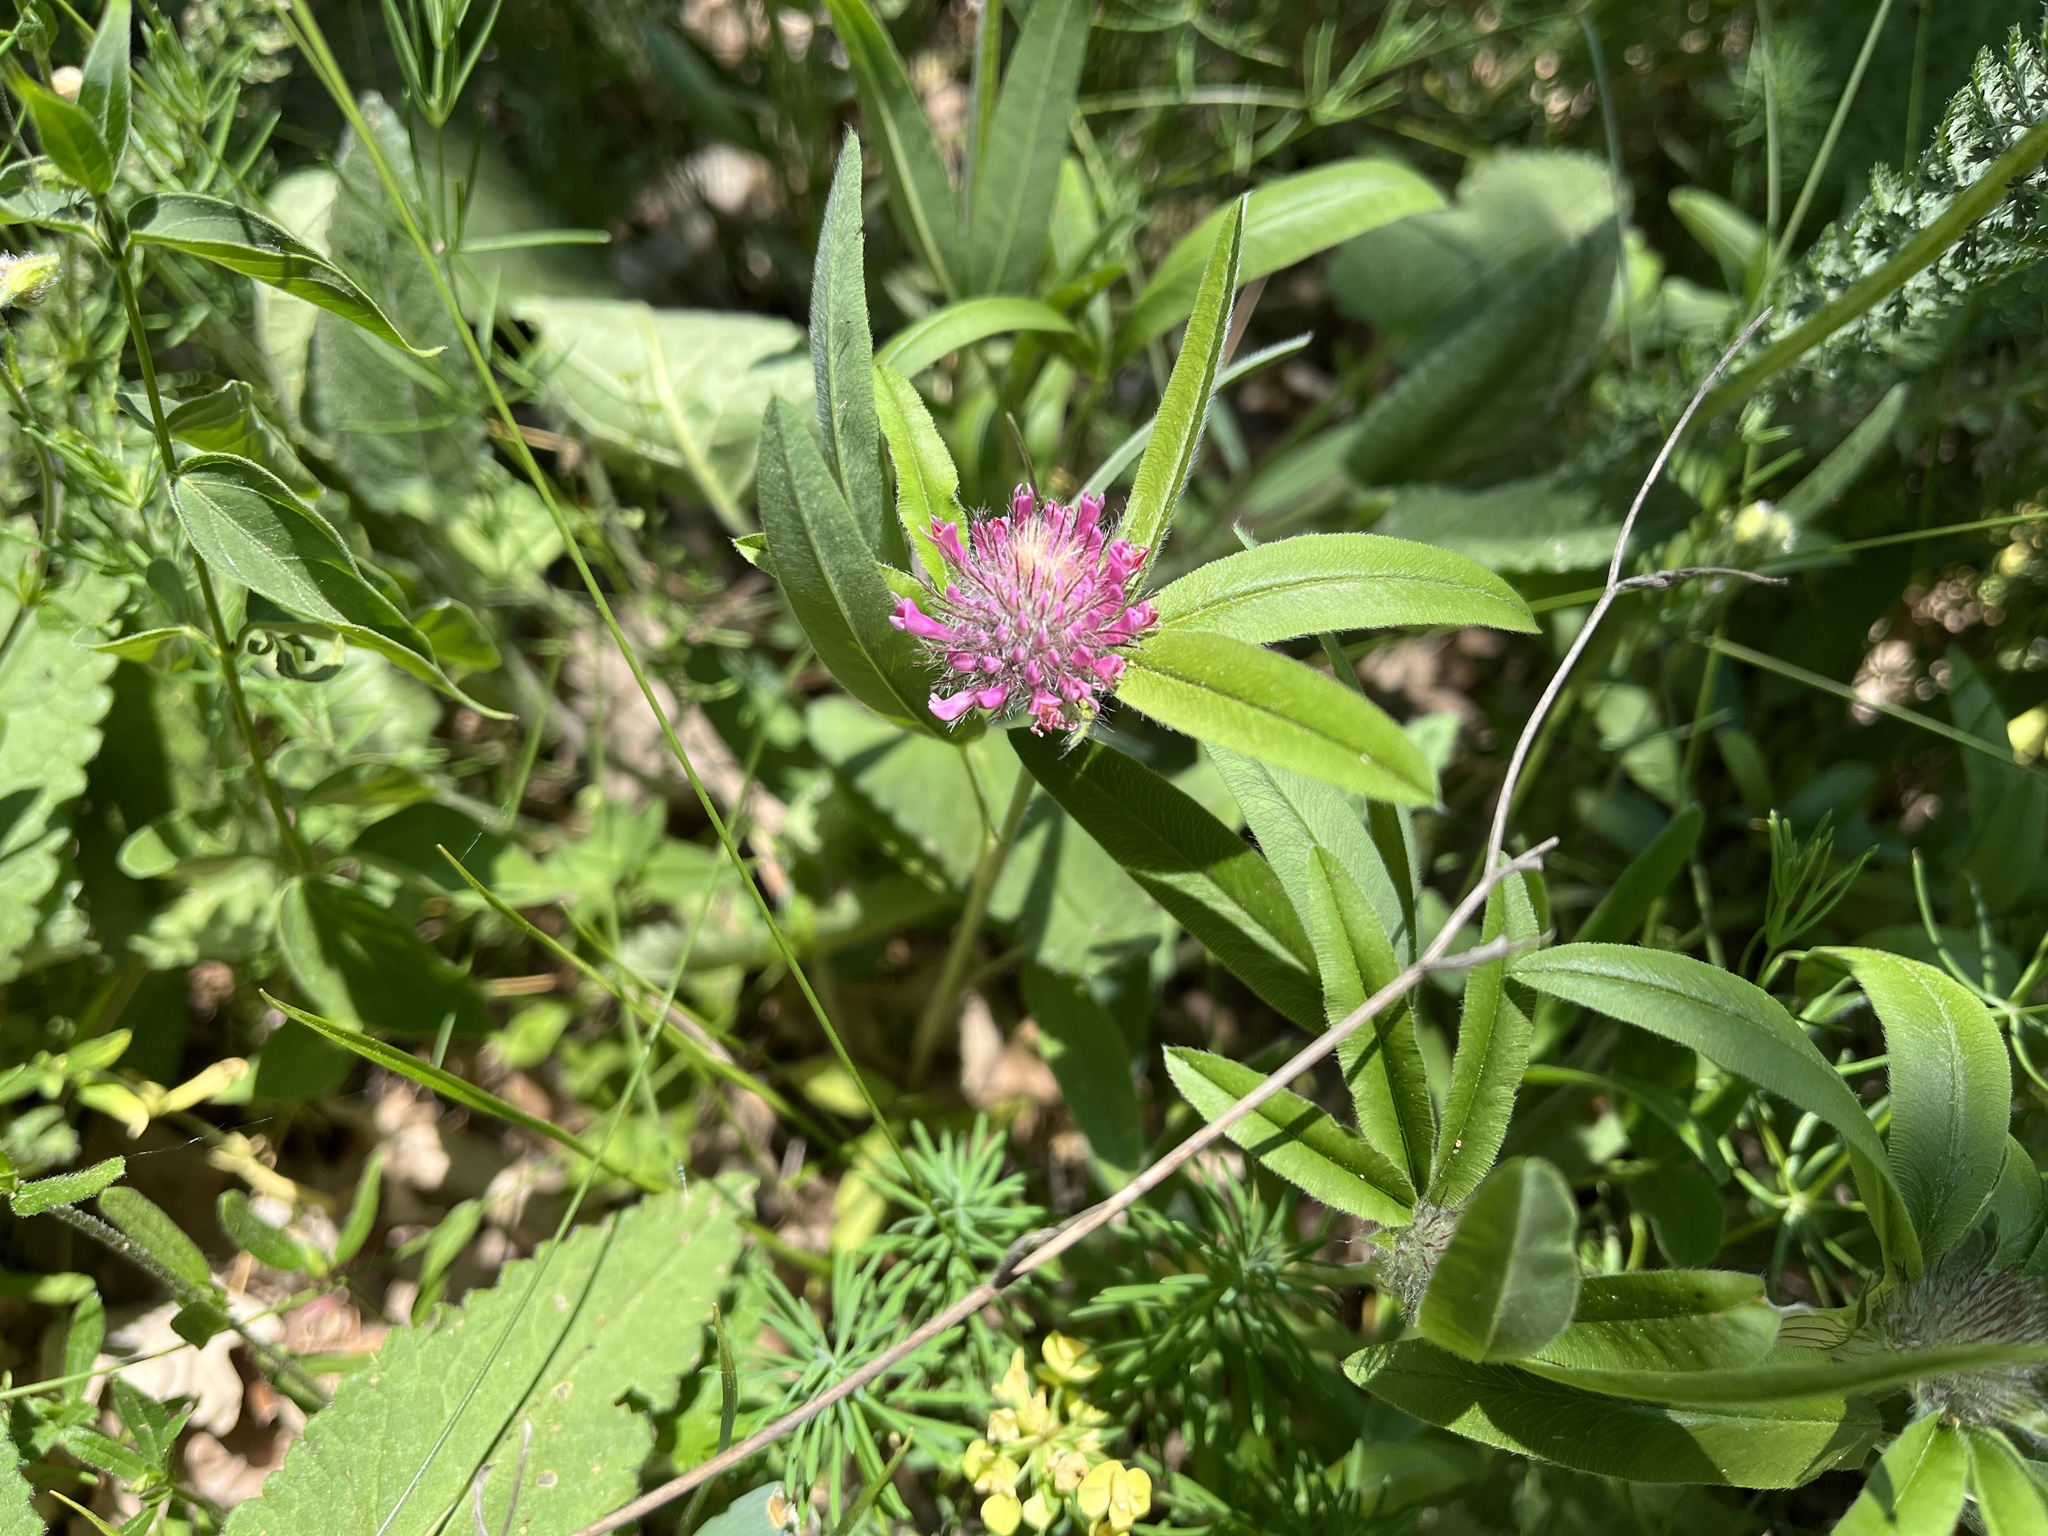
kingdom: Plantae
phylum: Tracheophyta
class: Magnoliopsida
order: Fabales
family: Fabaceae
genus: Trifolium
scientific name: Trifolium alpestre
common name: Owl-head clover
